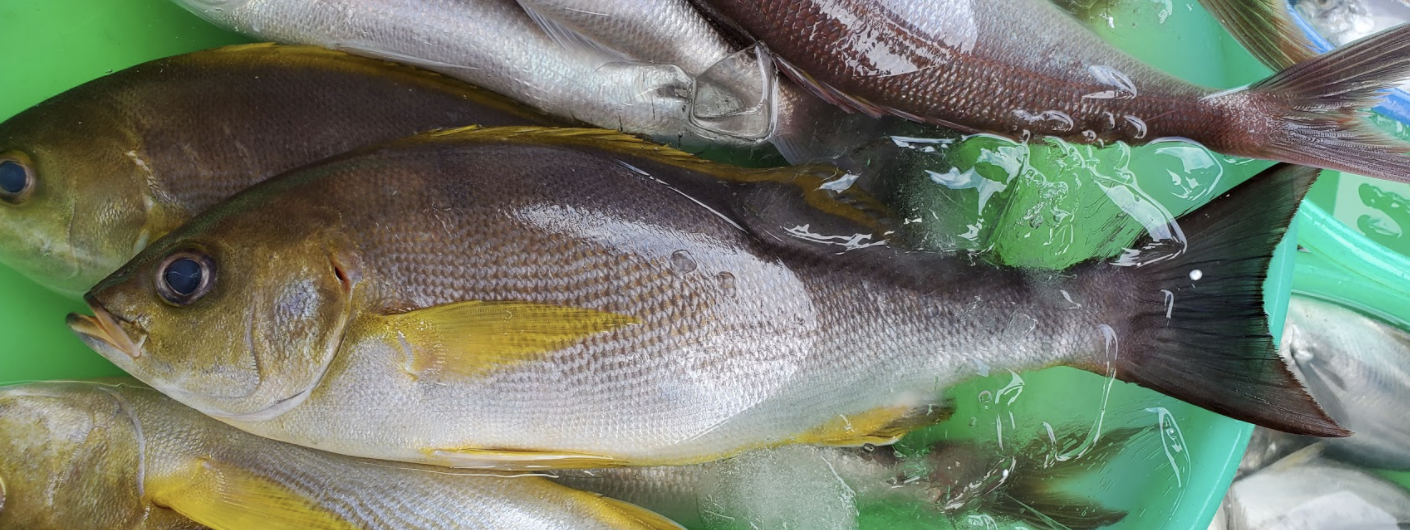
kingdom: Animalia
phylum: Chordata
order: Perciformes
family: Haemulidae
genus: Parapristipoma
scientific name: Parapristipoma trilineatum
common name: Chicken grunt
